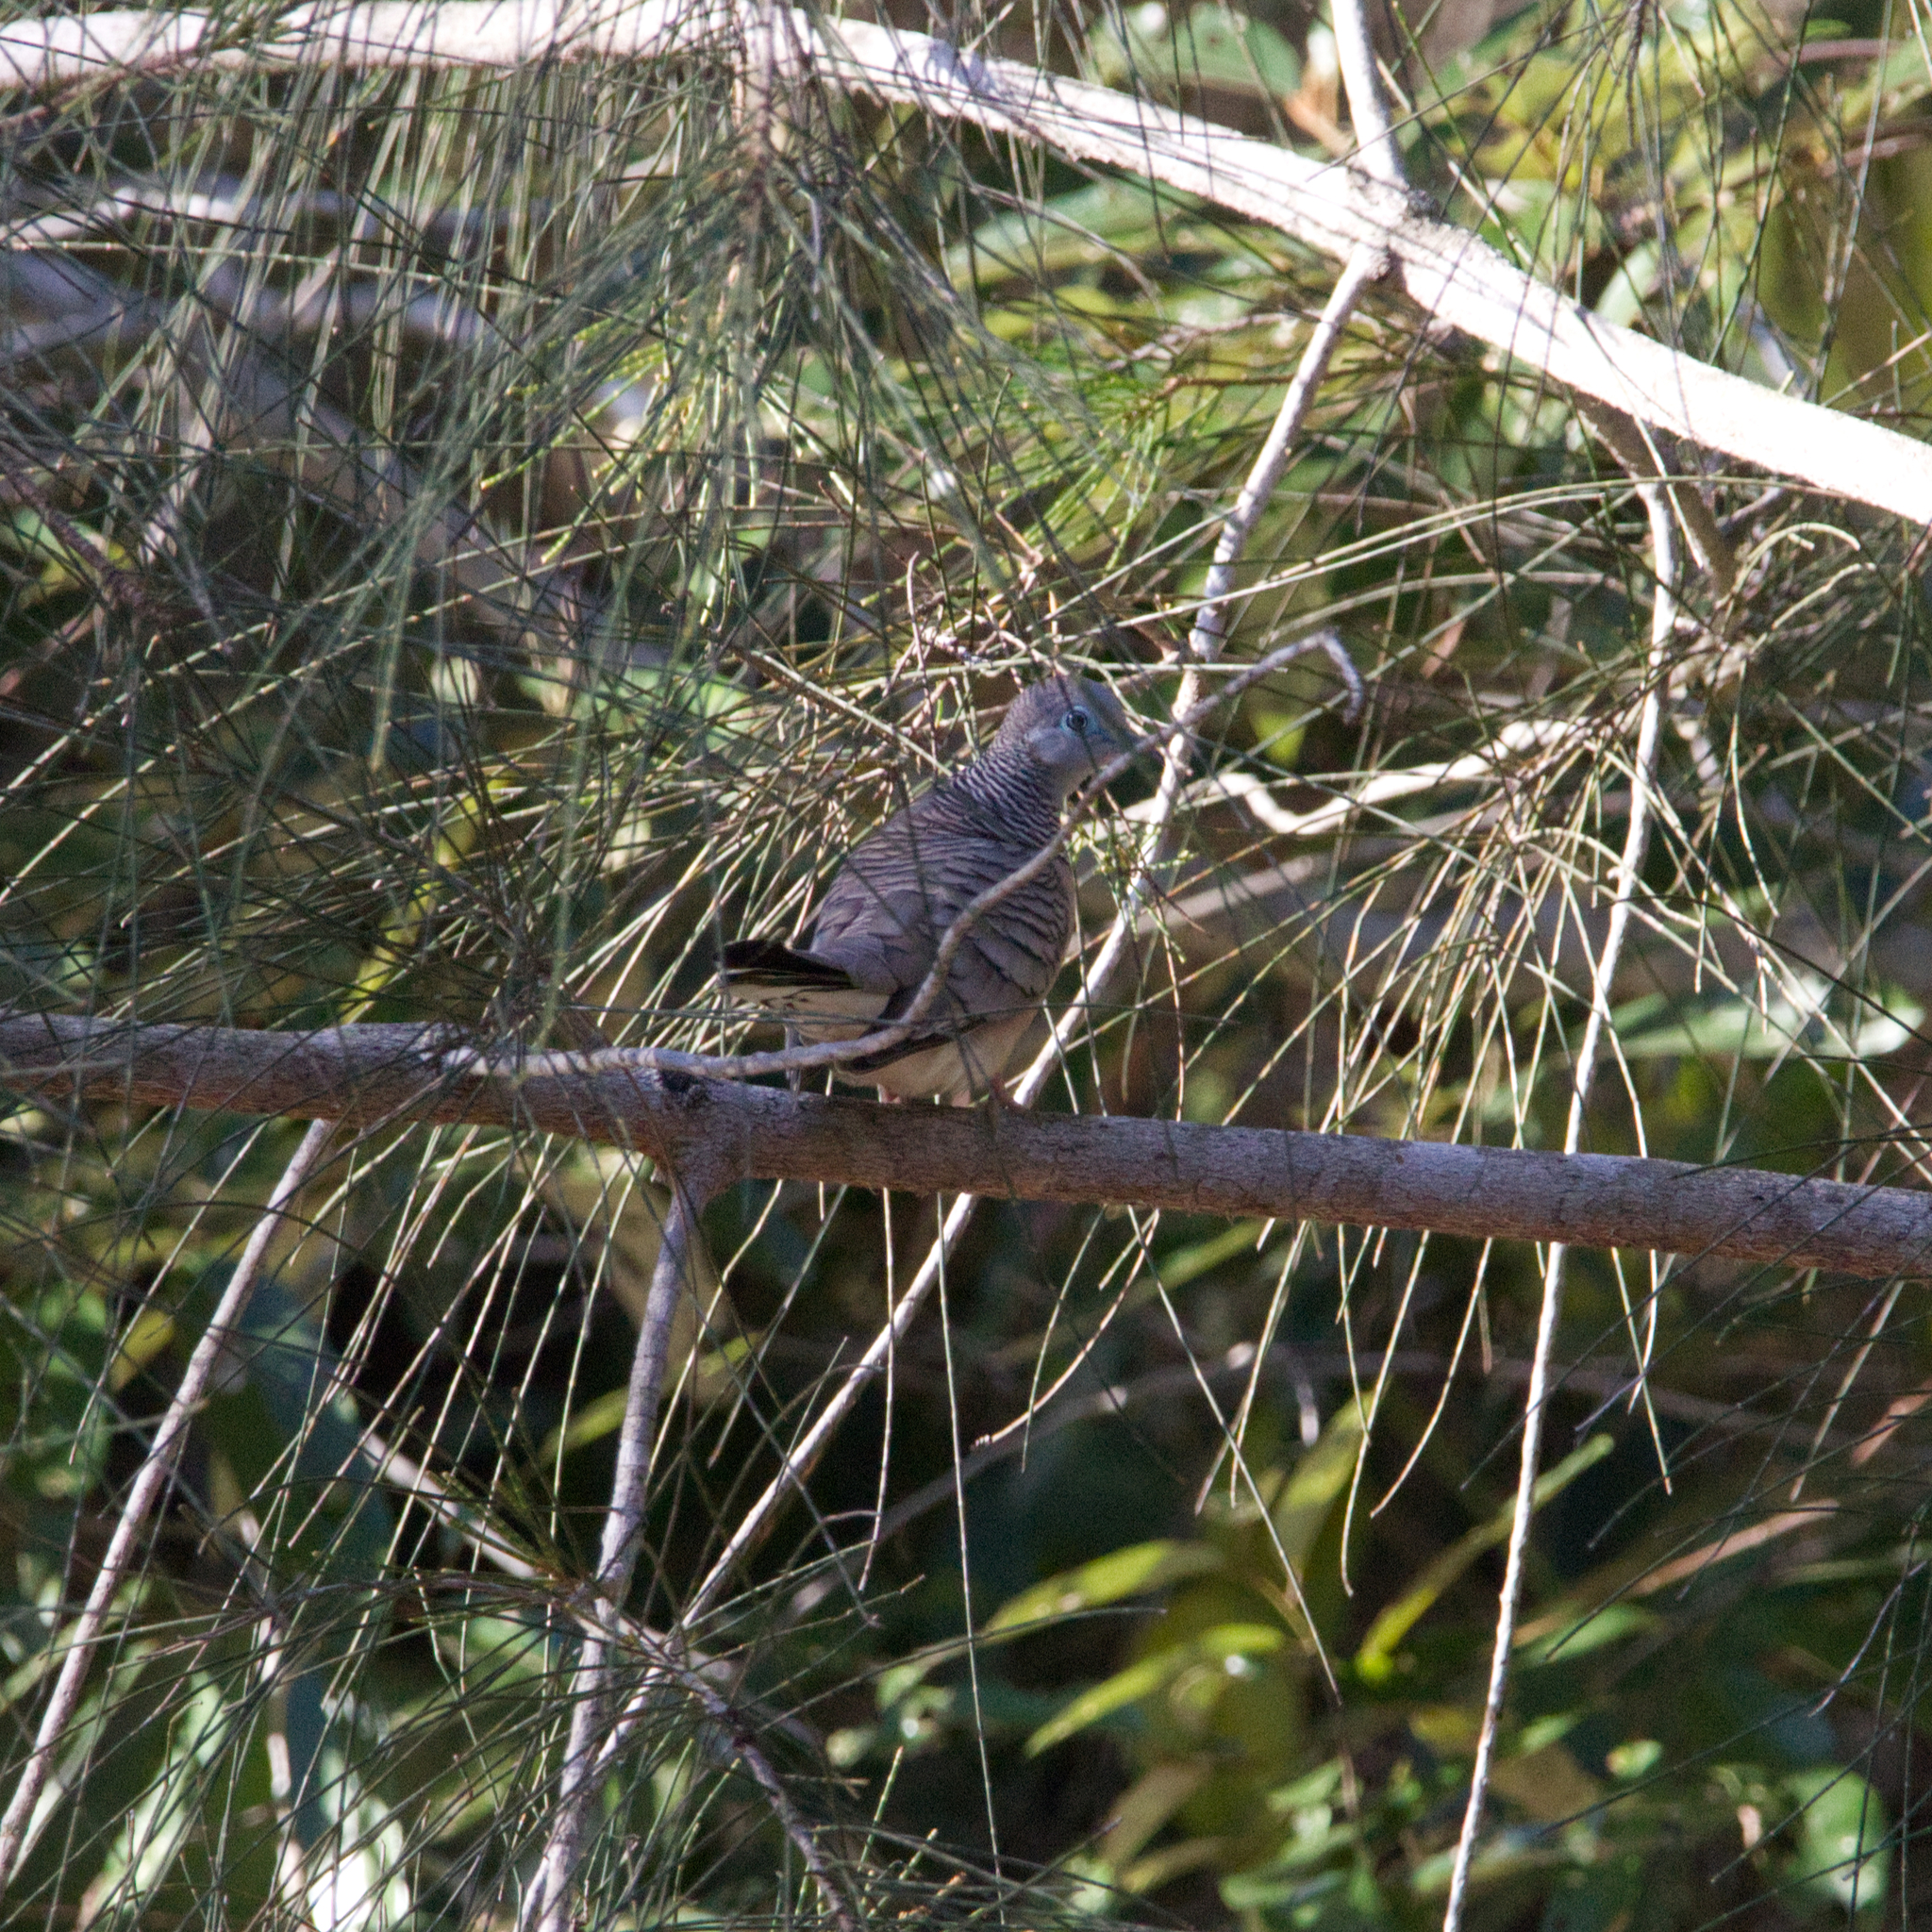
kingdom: Animalia
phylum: Chordata
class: Aves
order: Columbiformes
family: Columbidae
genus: Geopelia
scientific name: Geopelia placida
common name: Peaceful dove
